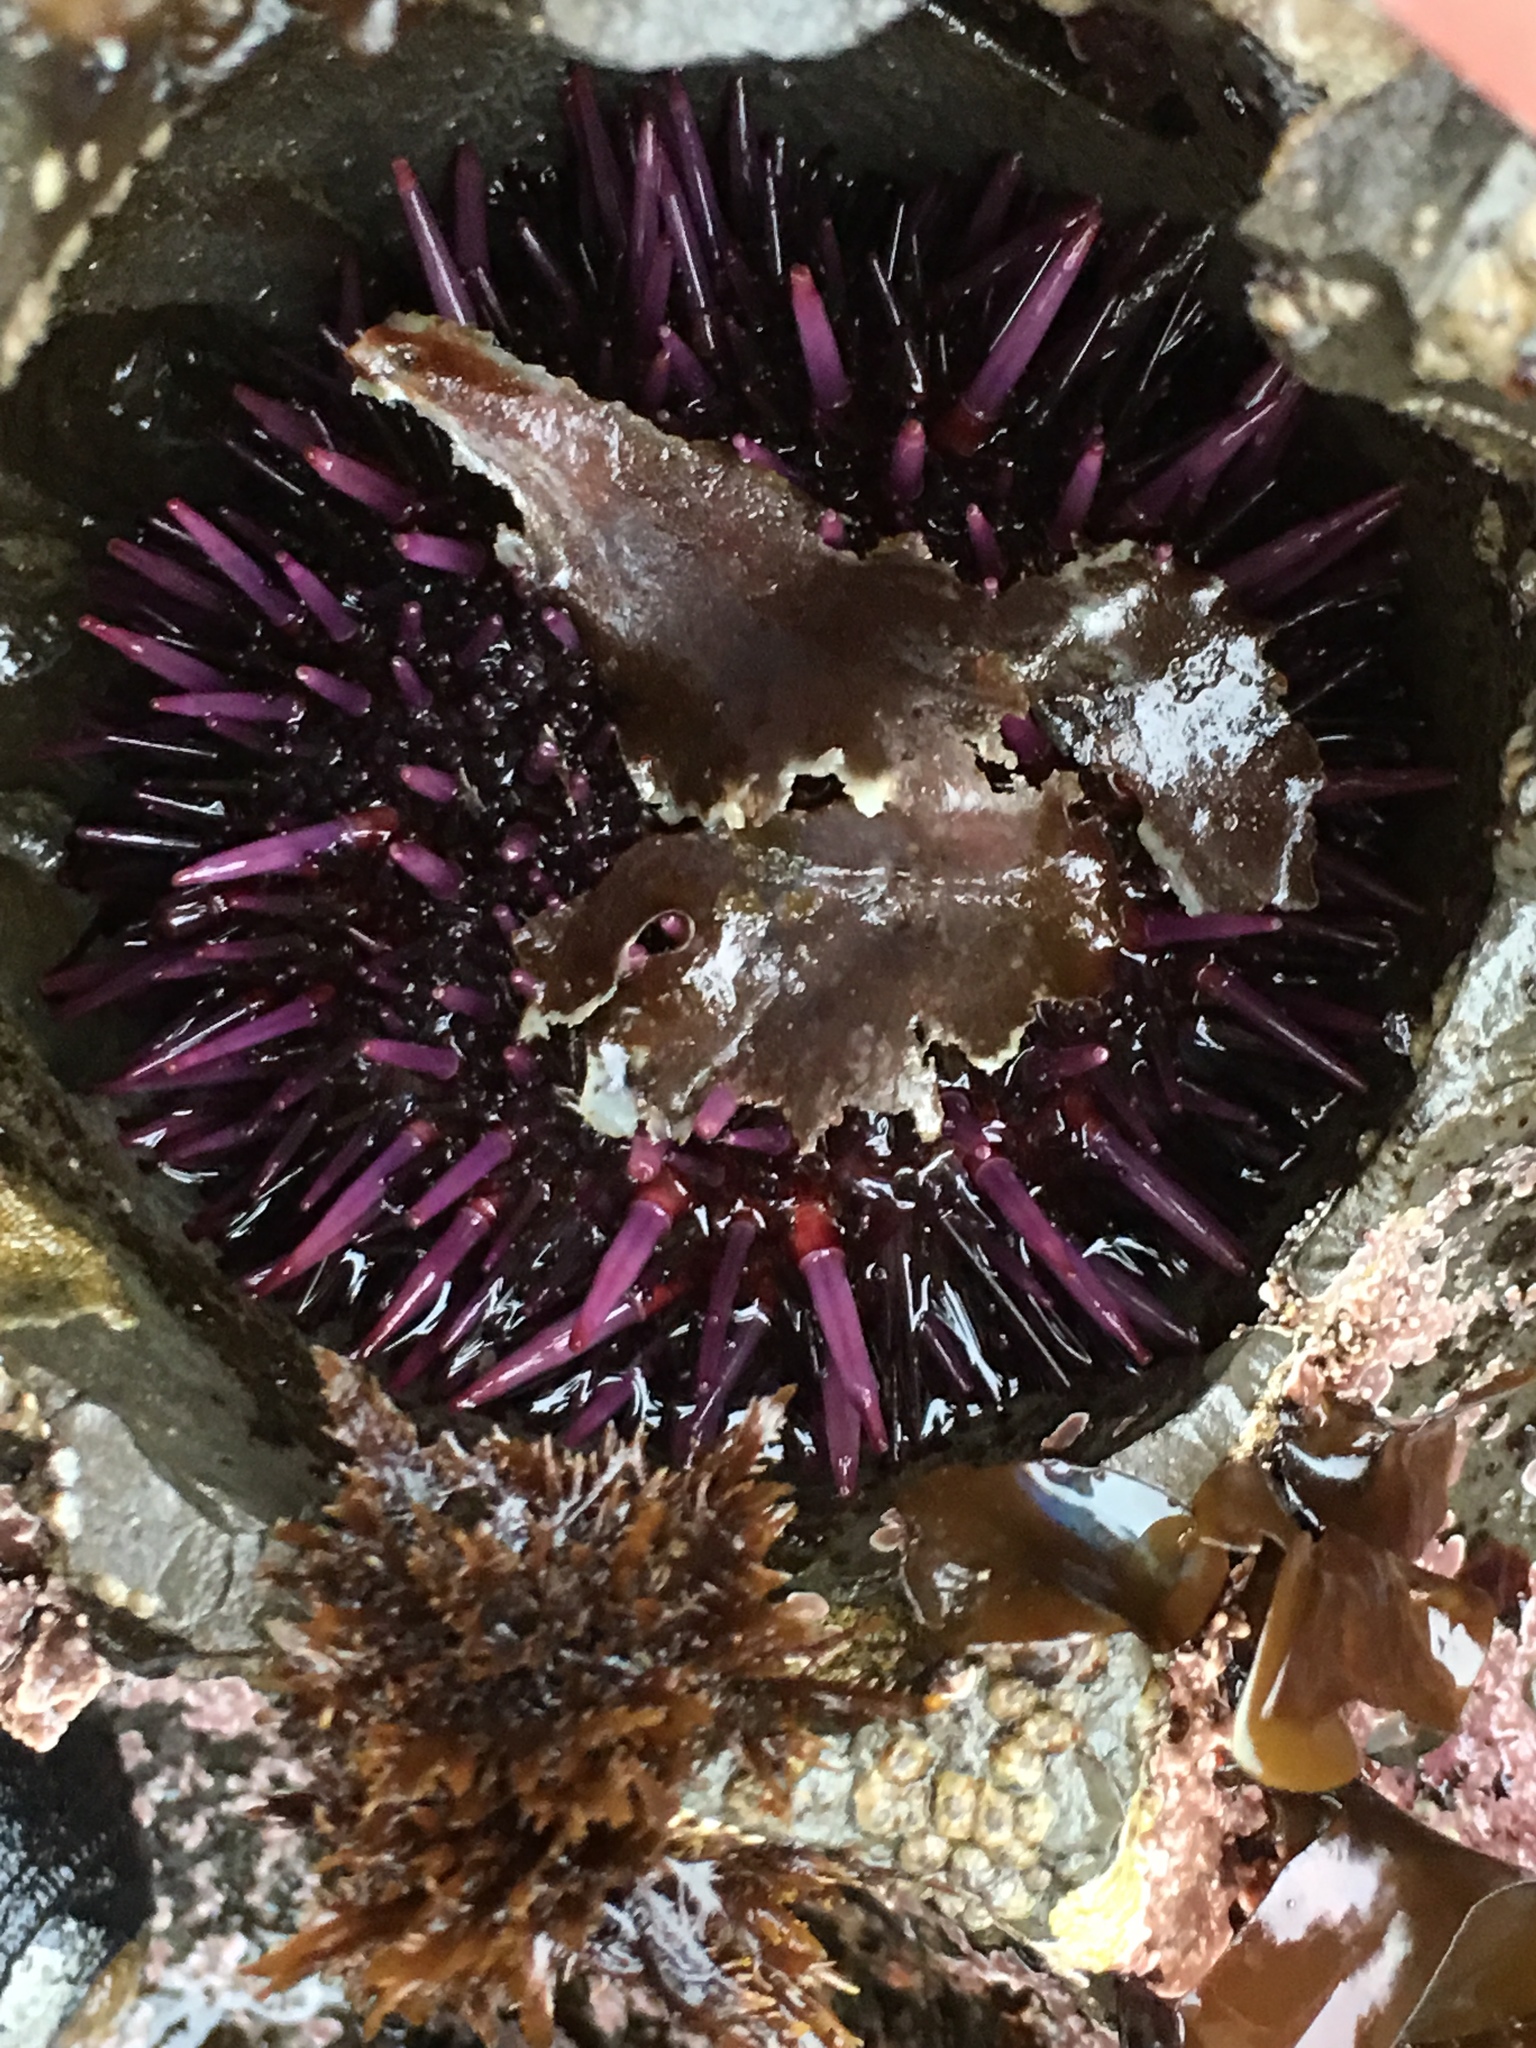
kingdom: Animalia
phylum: Echinodermata
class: Echinoidea
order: Camarodonta
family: Strongylocentrotidae
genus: Strongylocentrotus
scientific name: Strongylocentrotus purpuratus
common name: Purple sea urchin
